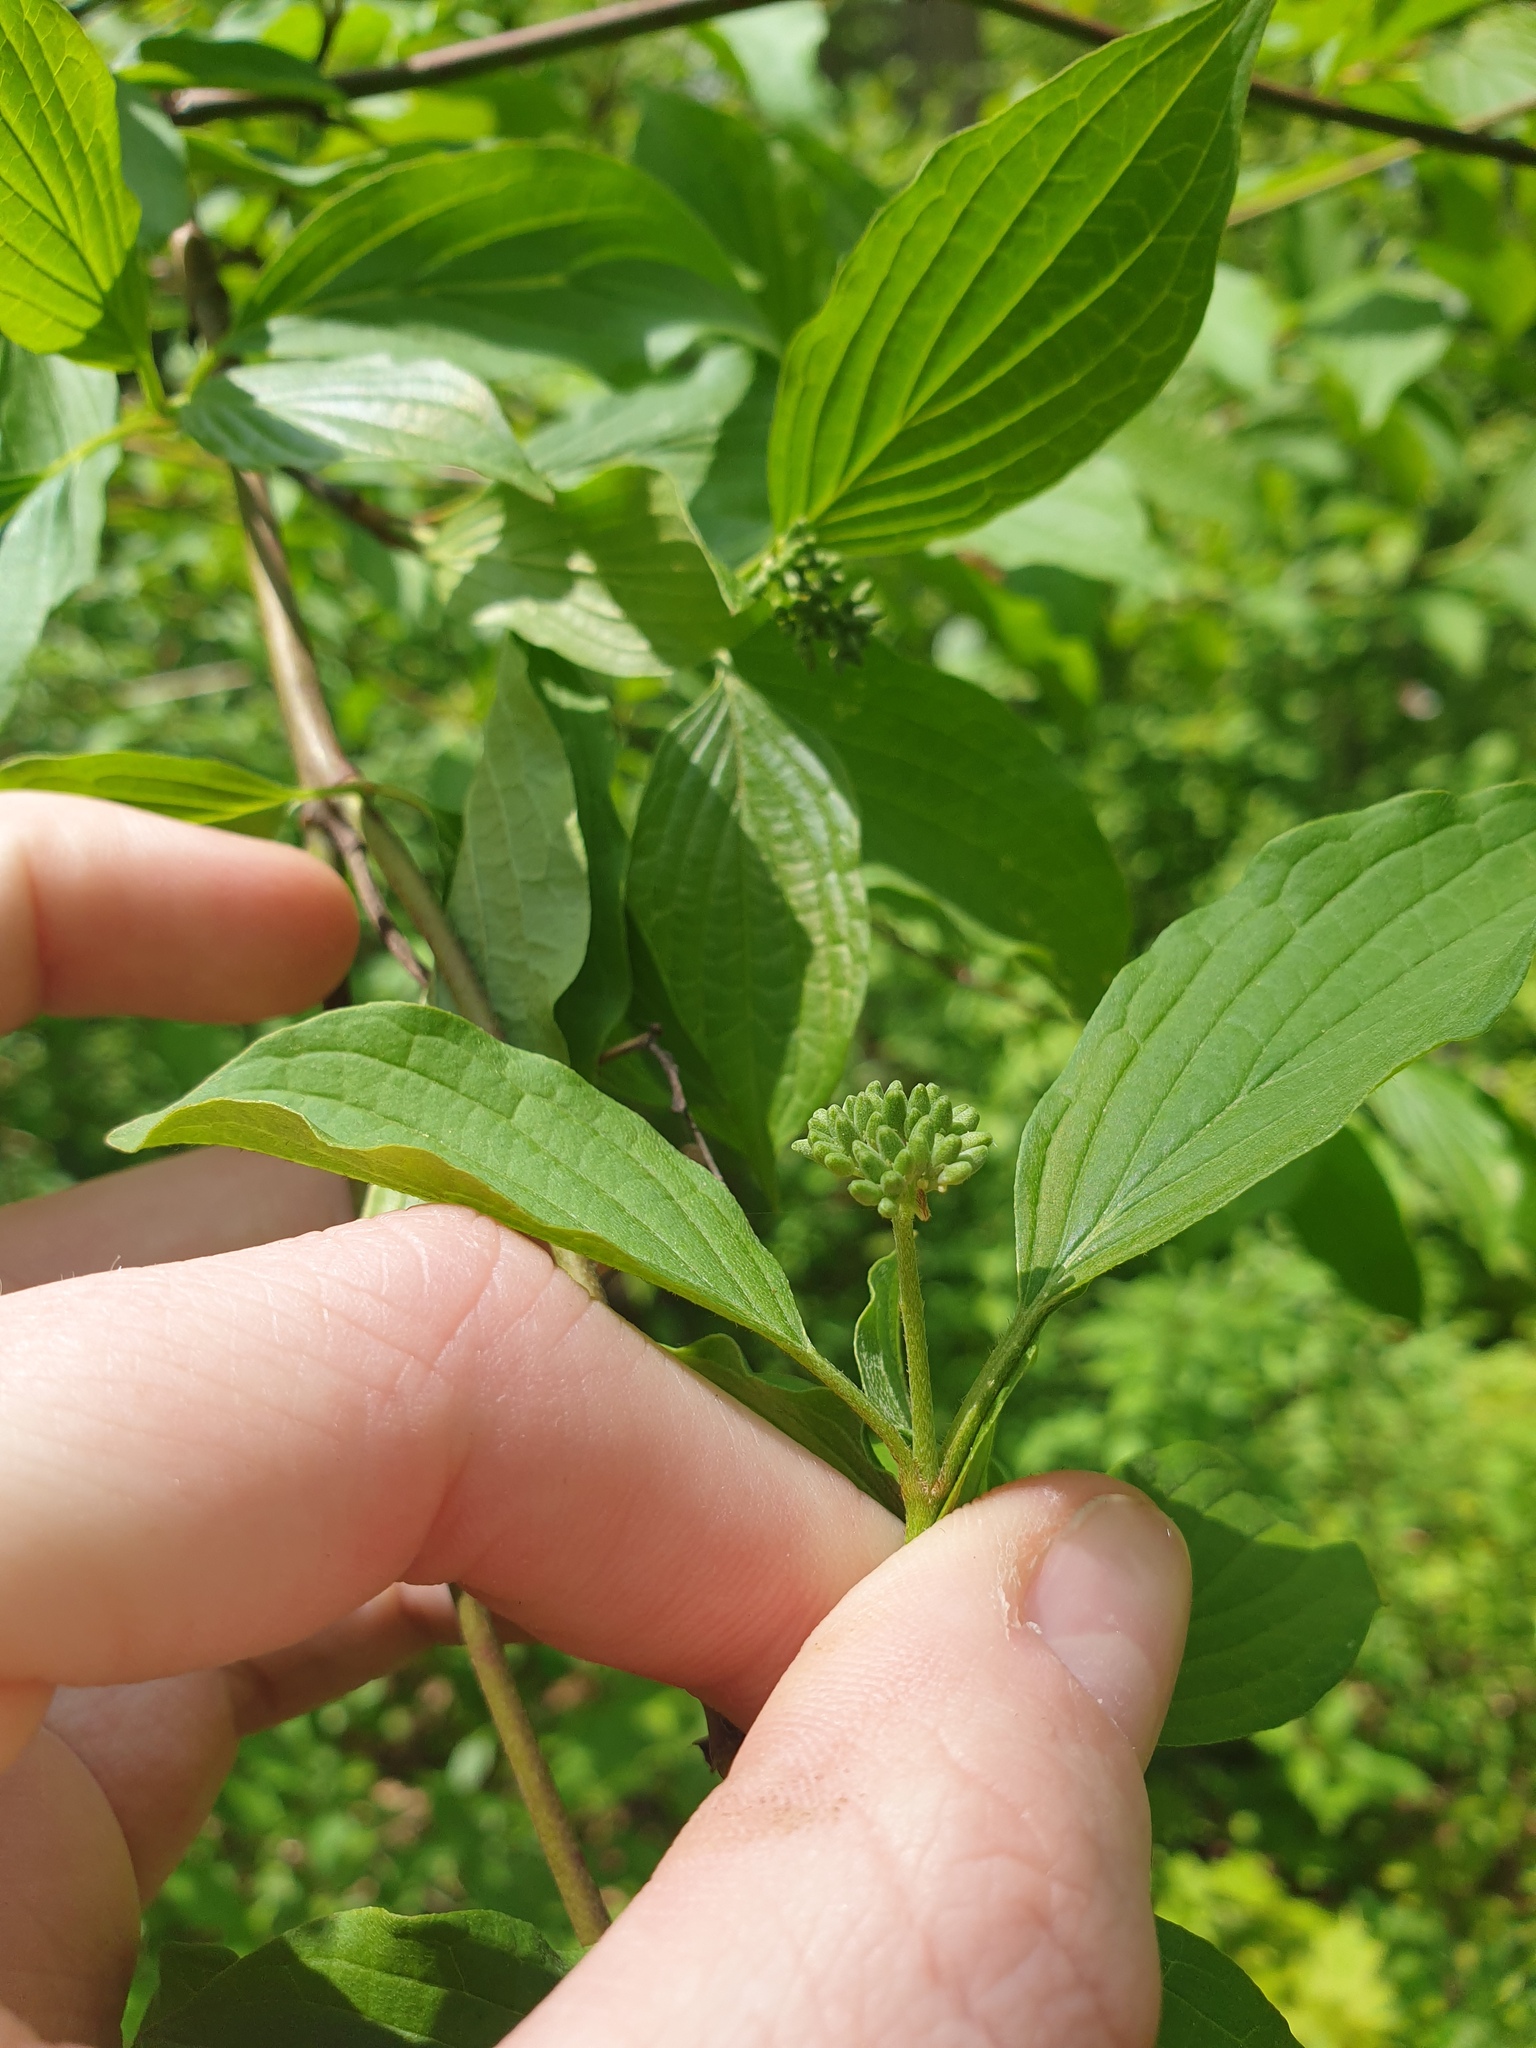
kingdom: Plantae
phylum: Tracheophyta
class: Magnoliopsida
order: Cornales
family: Cornaceae
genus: Cornus
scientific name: Cornus obliqua
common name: Pale dogwood
